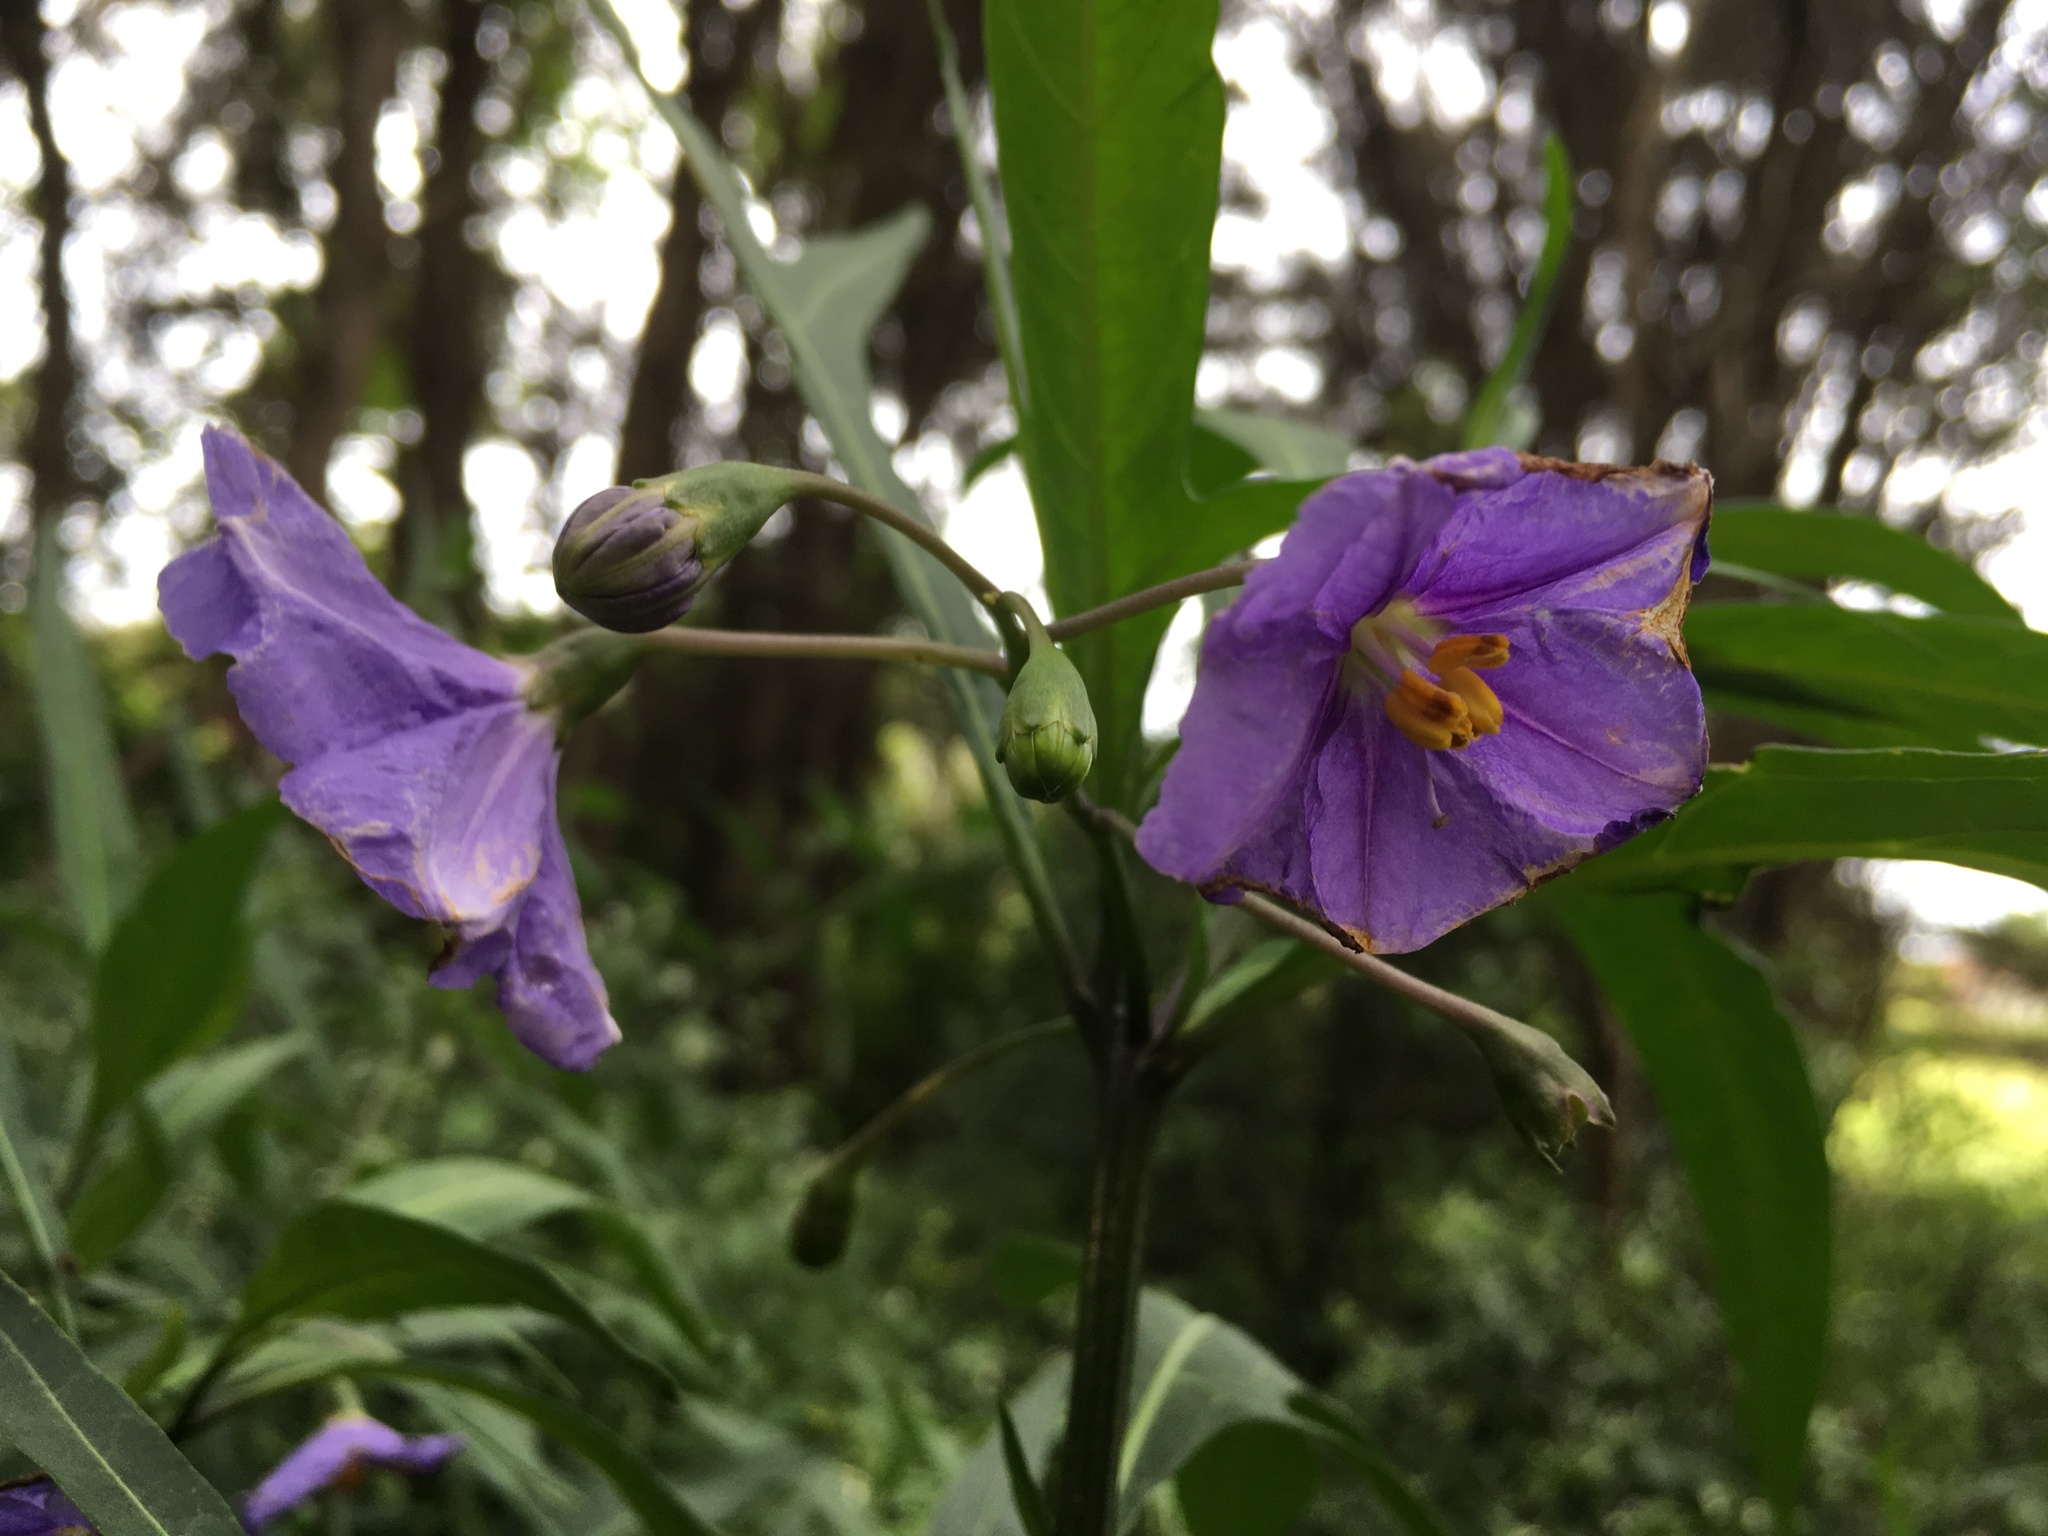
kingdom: Plantae
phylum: Tracheophyta
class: Magnoliopsida
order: Solanales
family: Solanaceae
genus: Solanum
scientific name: Solanum laciniatum
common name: Kangaroo-apple
